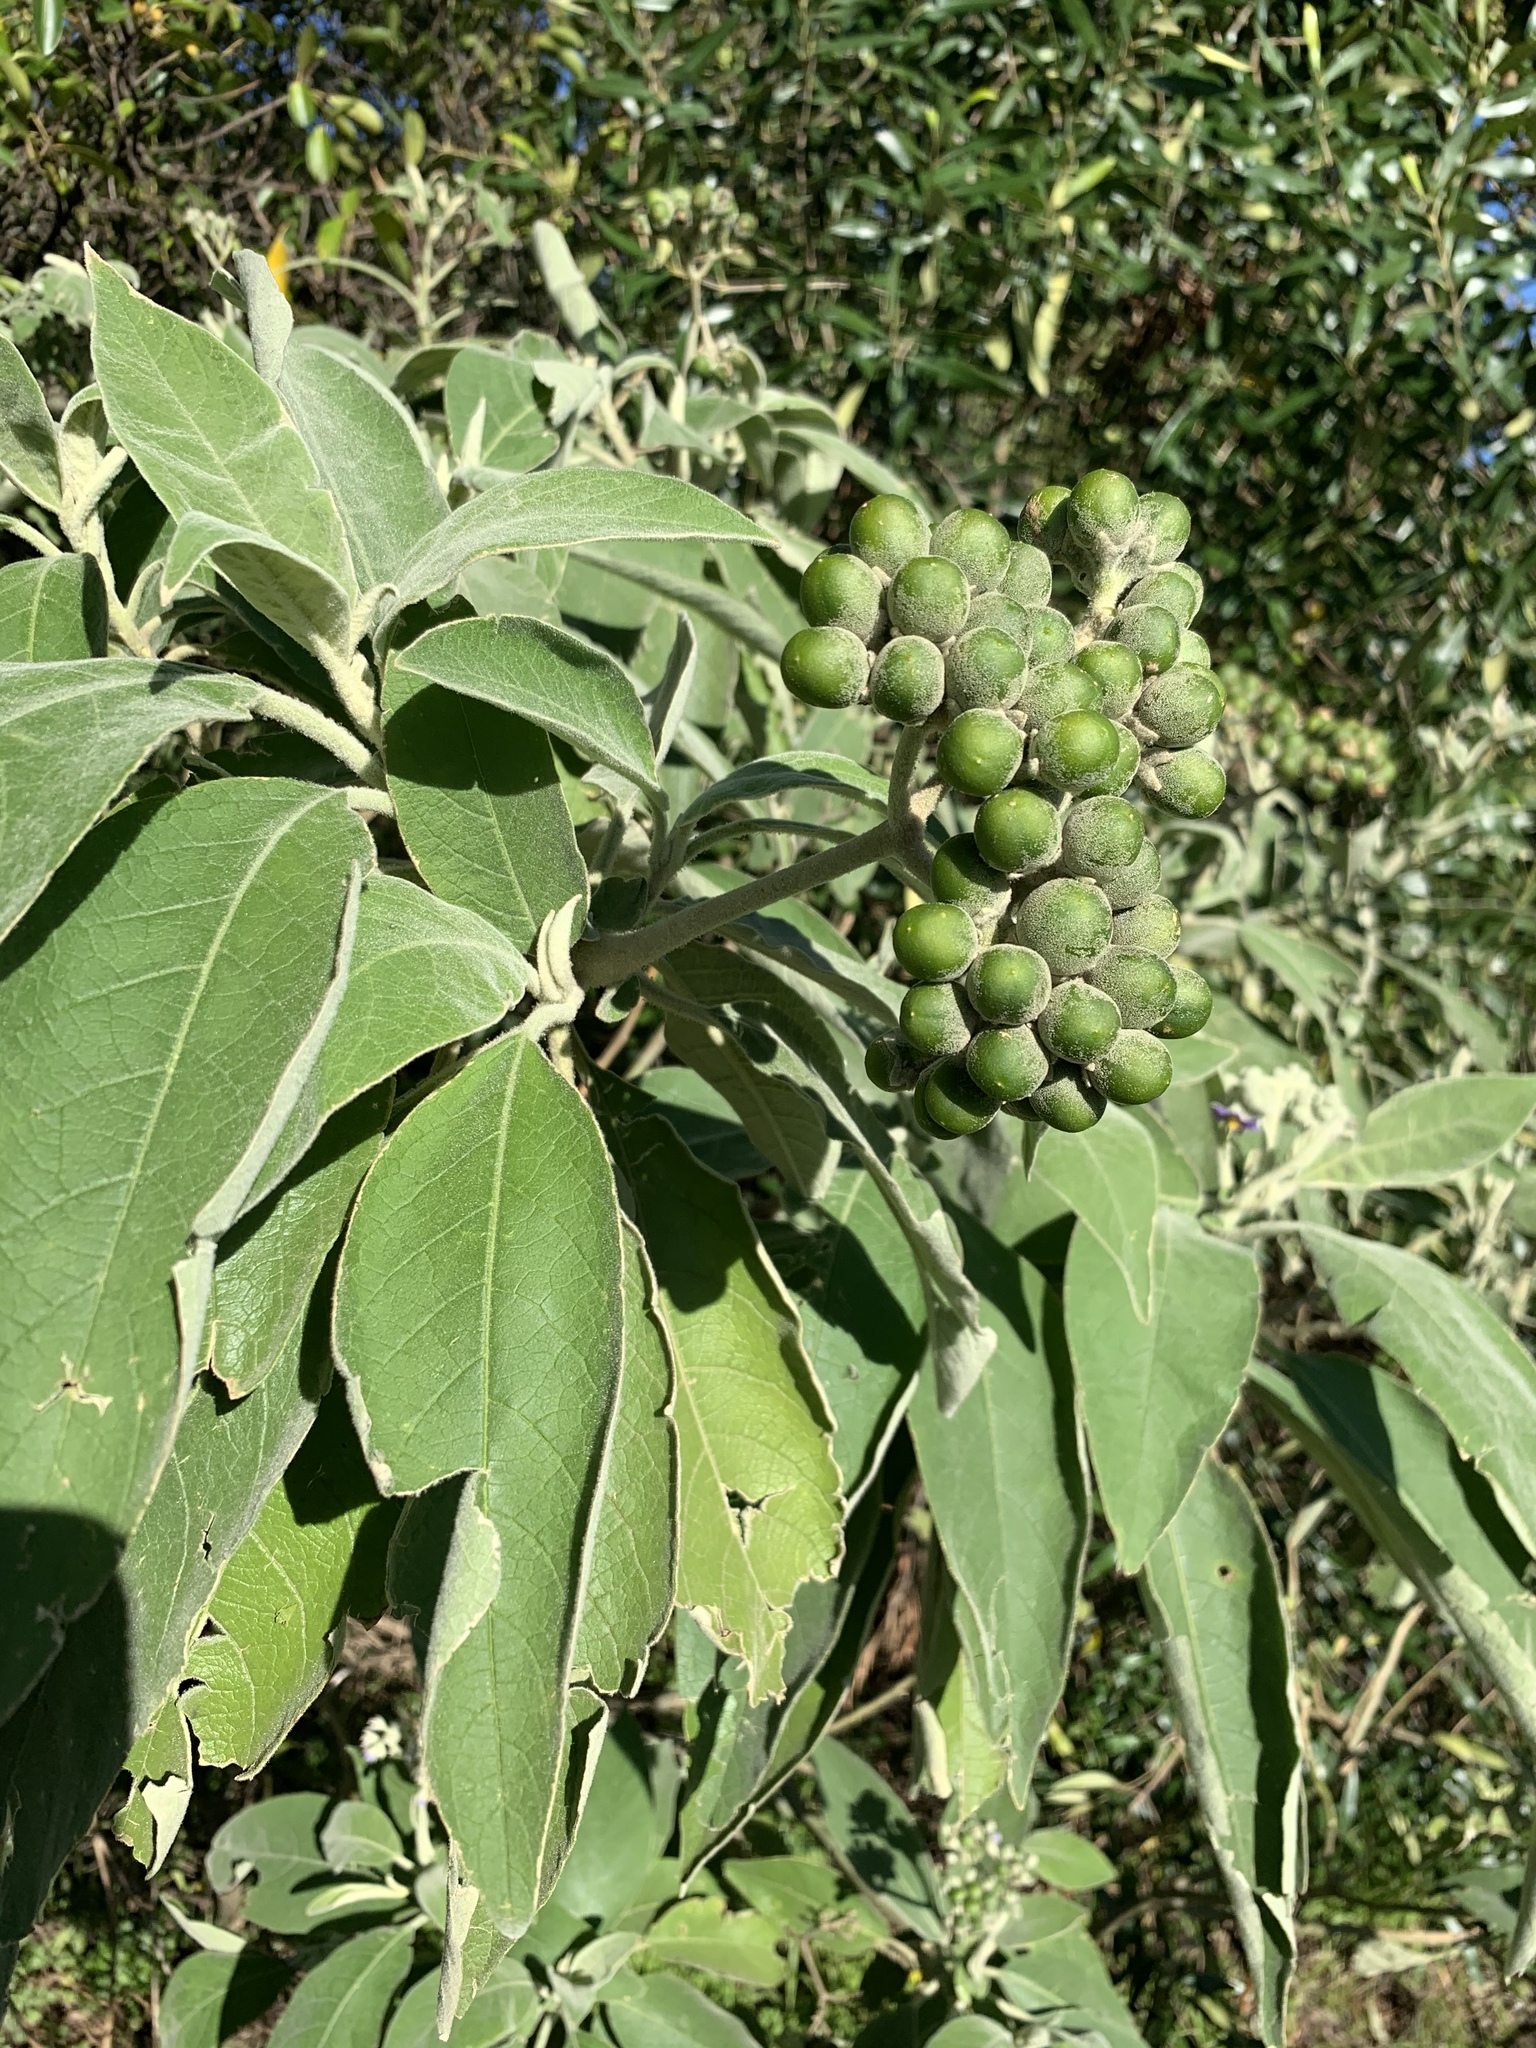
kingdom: Plantae
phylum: Tracheophyta
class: Magnoliopsida
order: Solanales
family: Solanaceae
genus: Solanum
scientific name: Solanum mauritianum
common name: Earleaf nightshade
